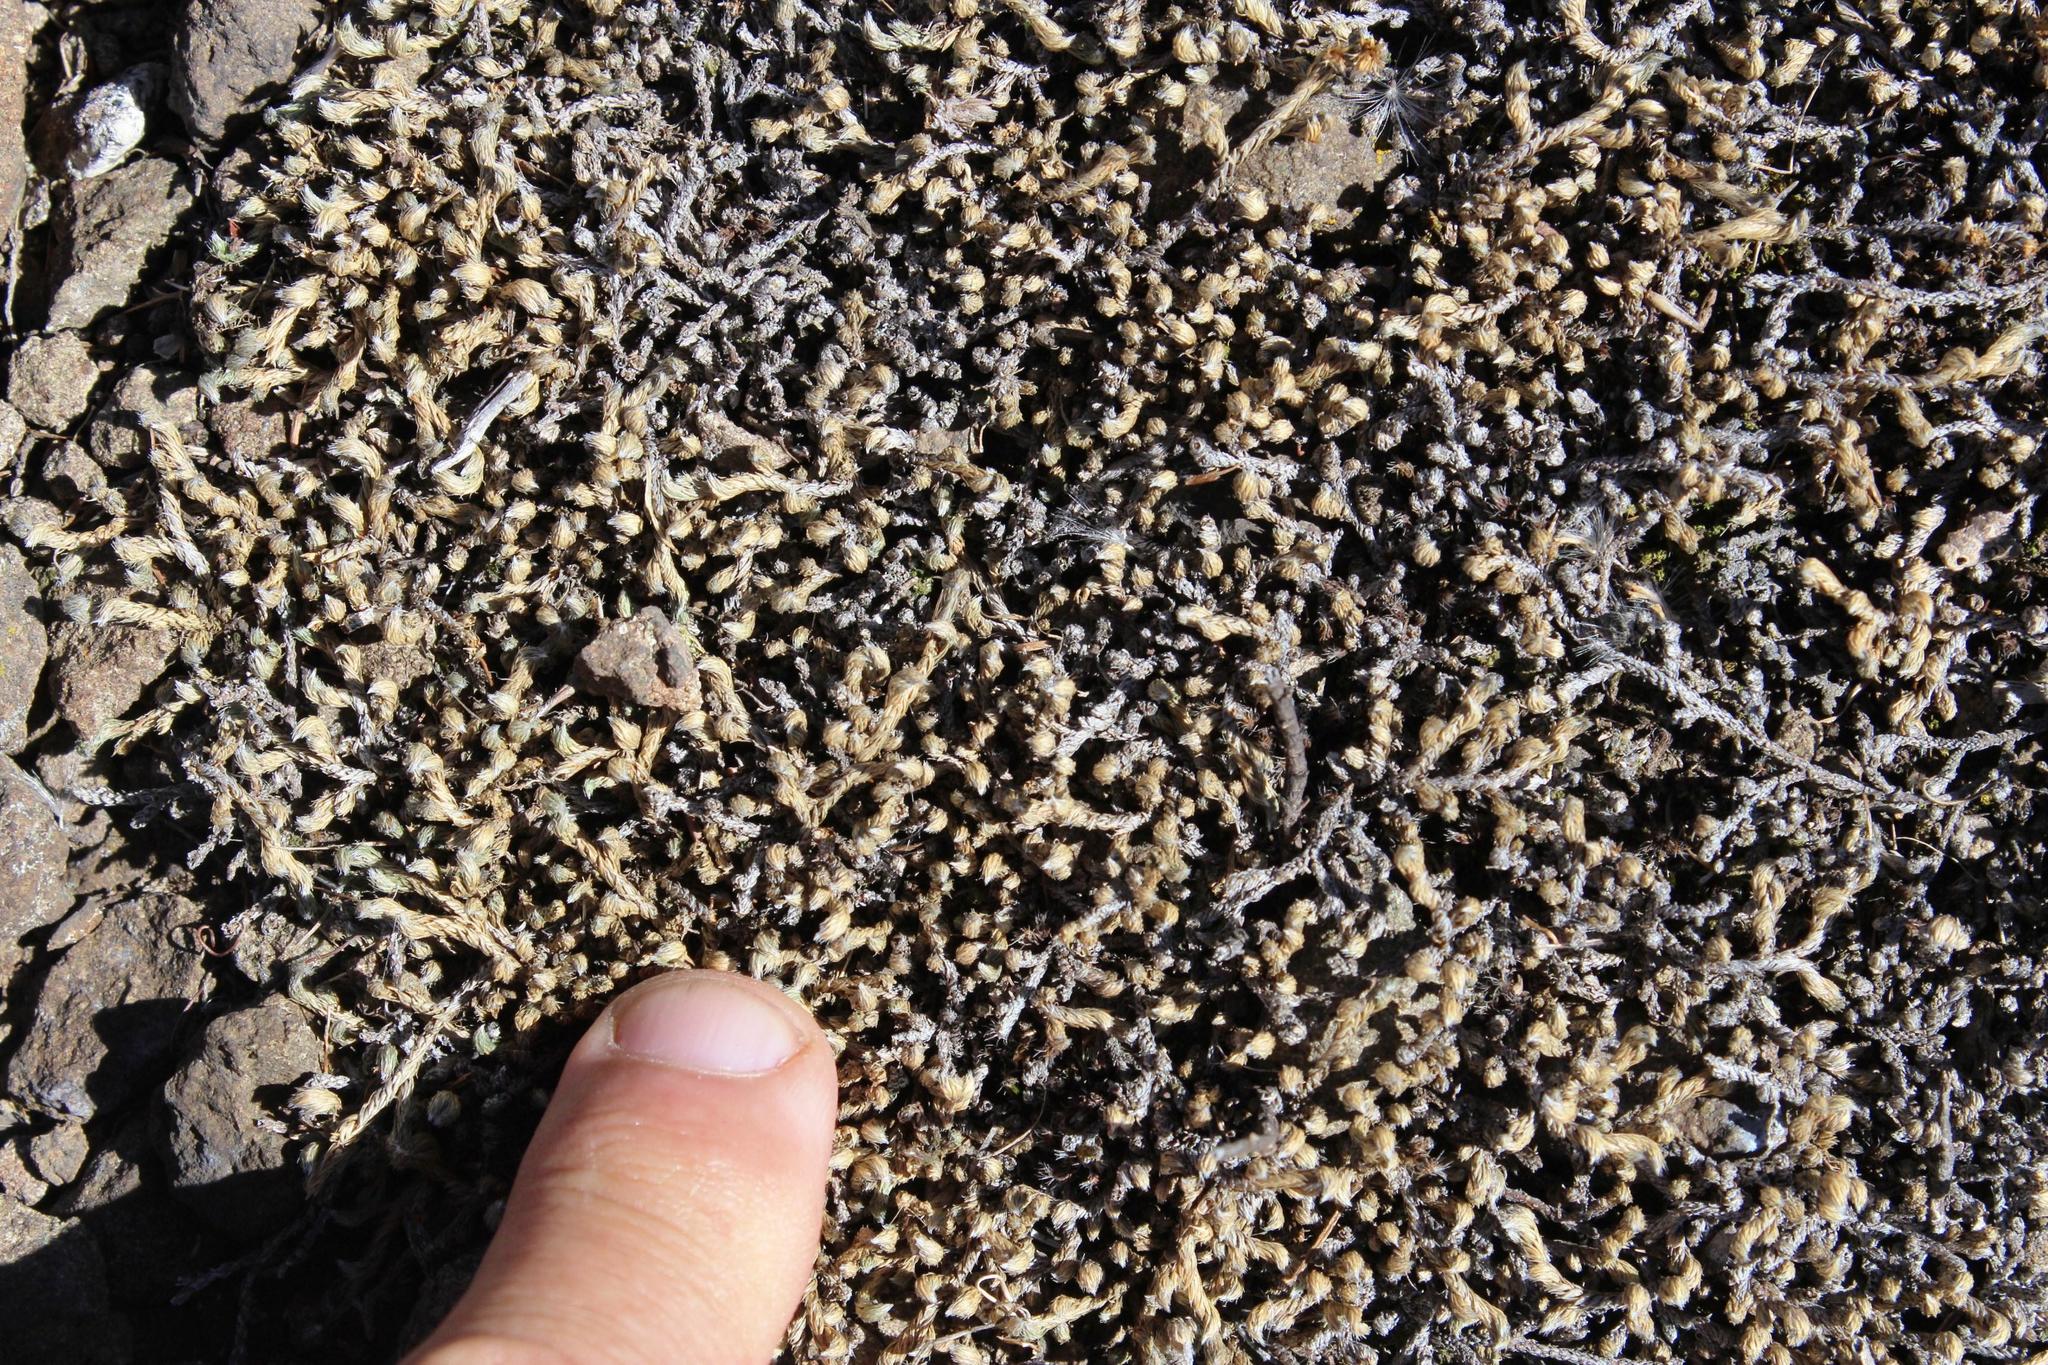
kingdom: Plantae
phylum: Tracheophyta
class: Lycopodiopsida
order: Selaginellales
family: Selaginellaceae
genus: Selaginella
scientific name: Selaginella dregei
